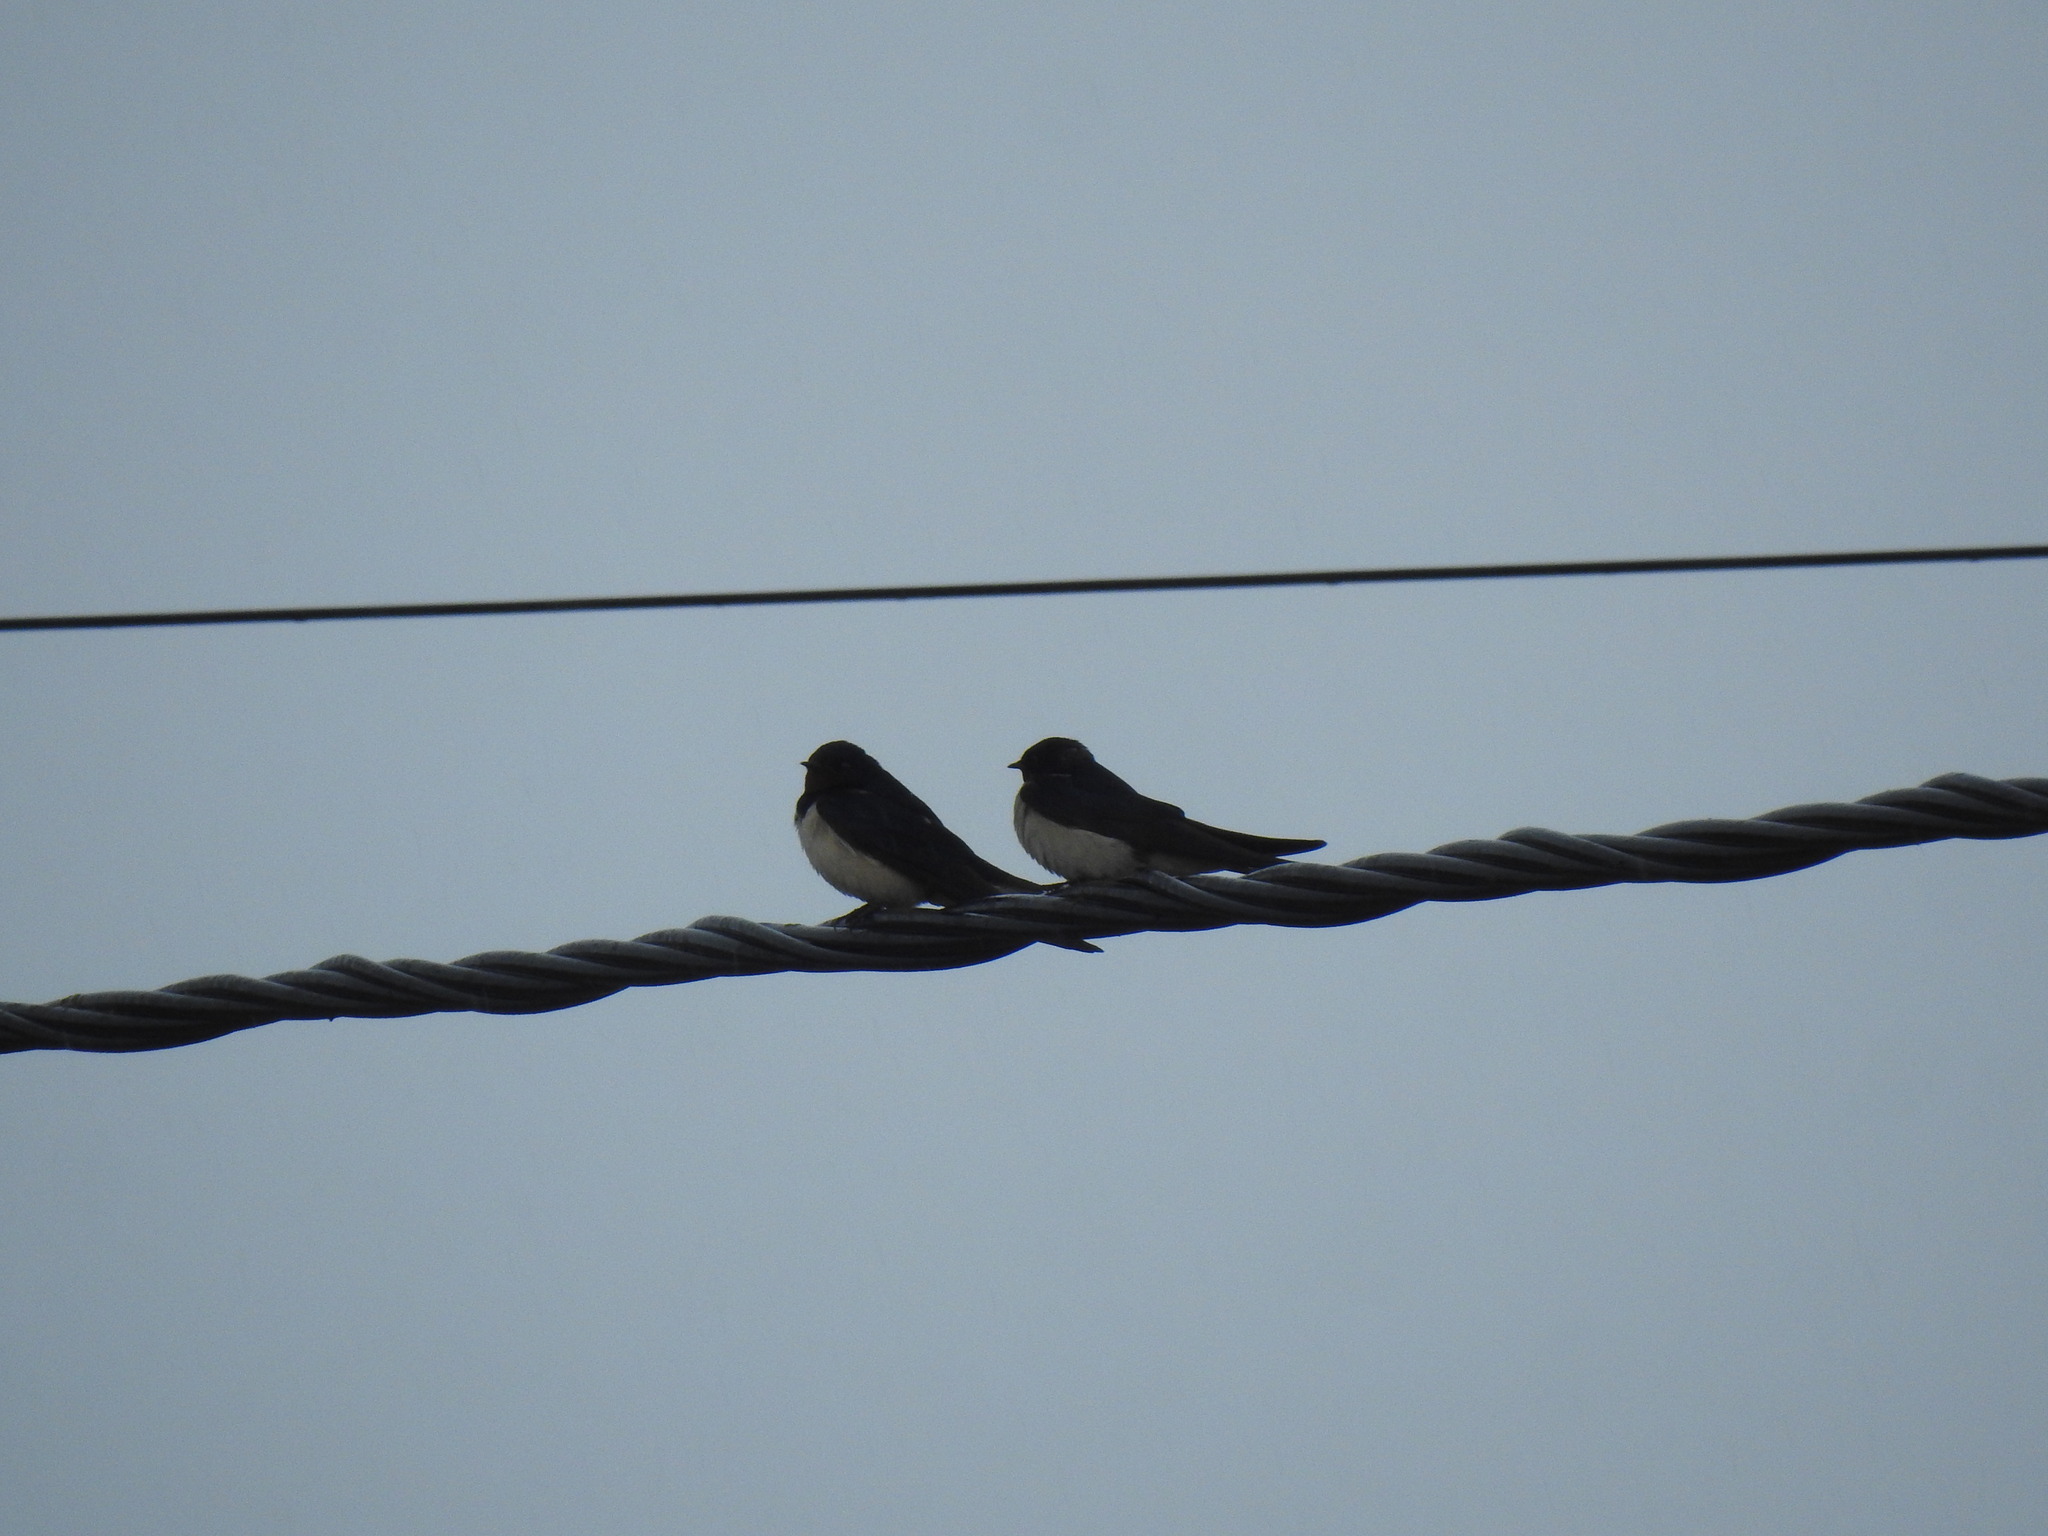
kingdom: Animalia
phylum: Chordata
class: Aves
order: Passeriformes
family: Hirundinidae
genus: Hirundo
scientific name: Hirundo rustica
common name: Barn swallow
